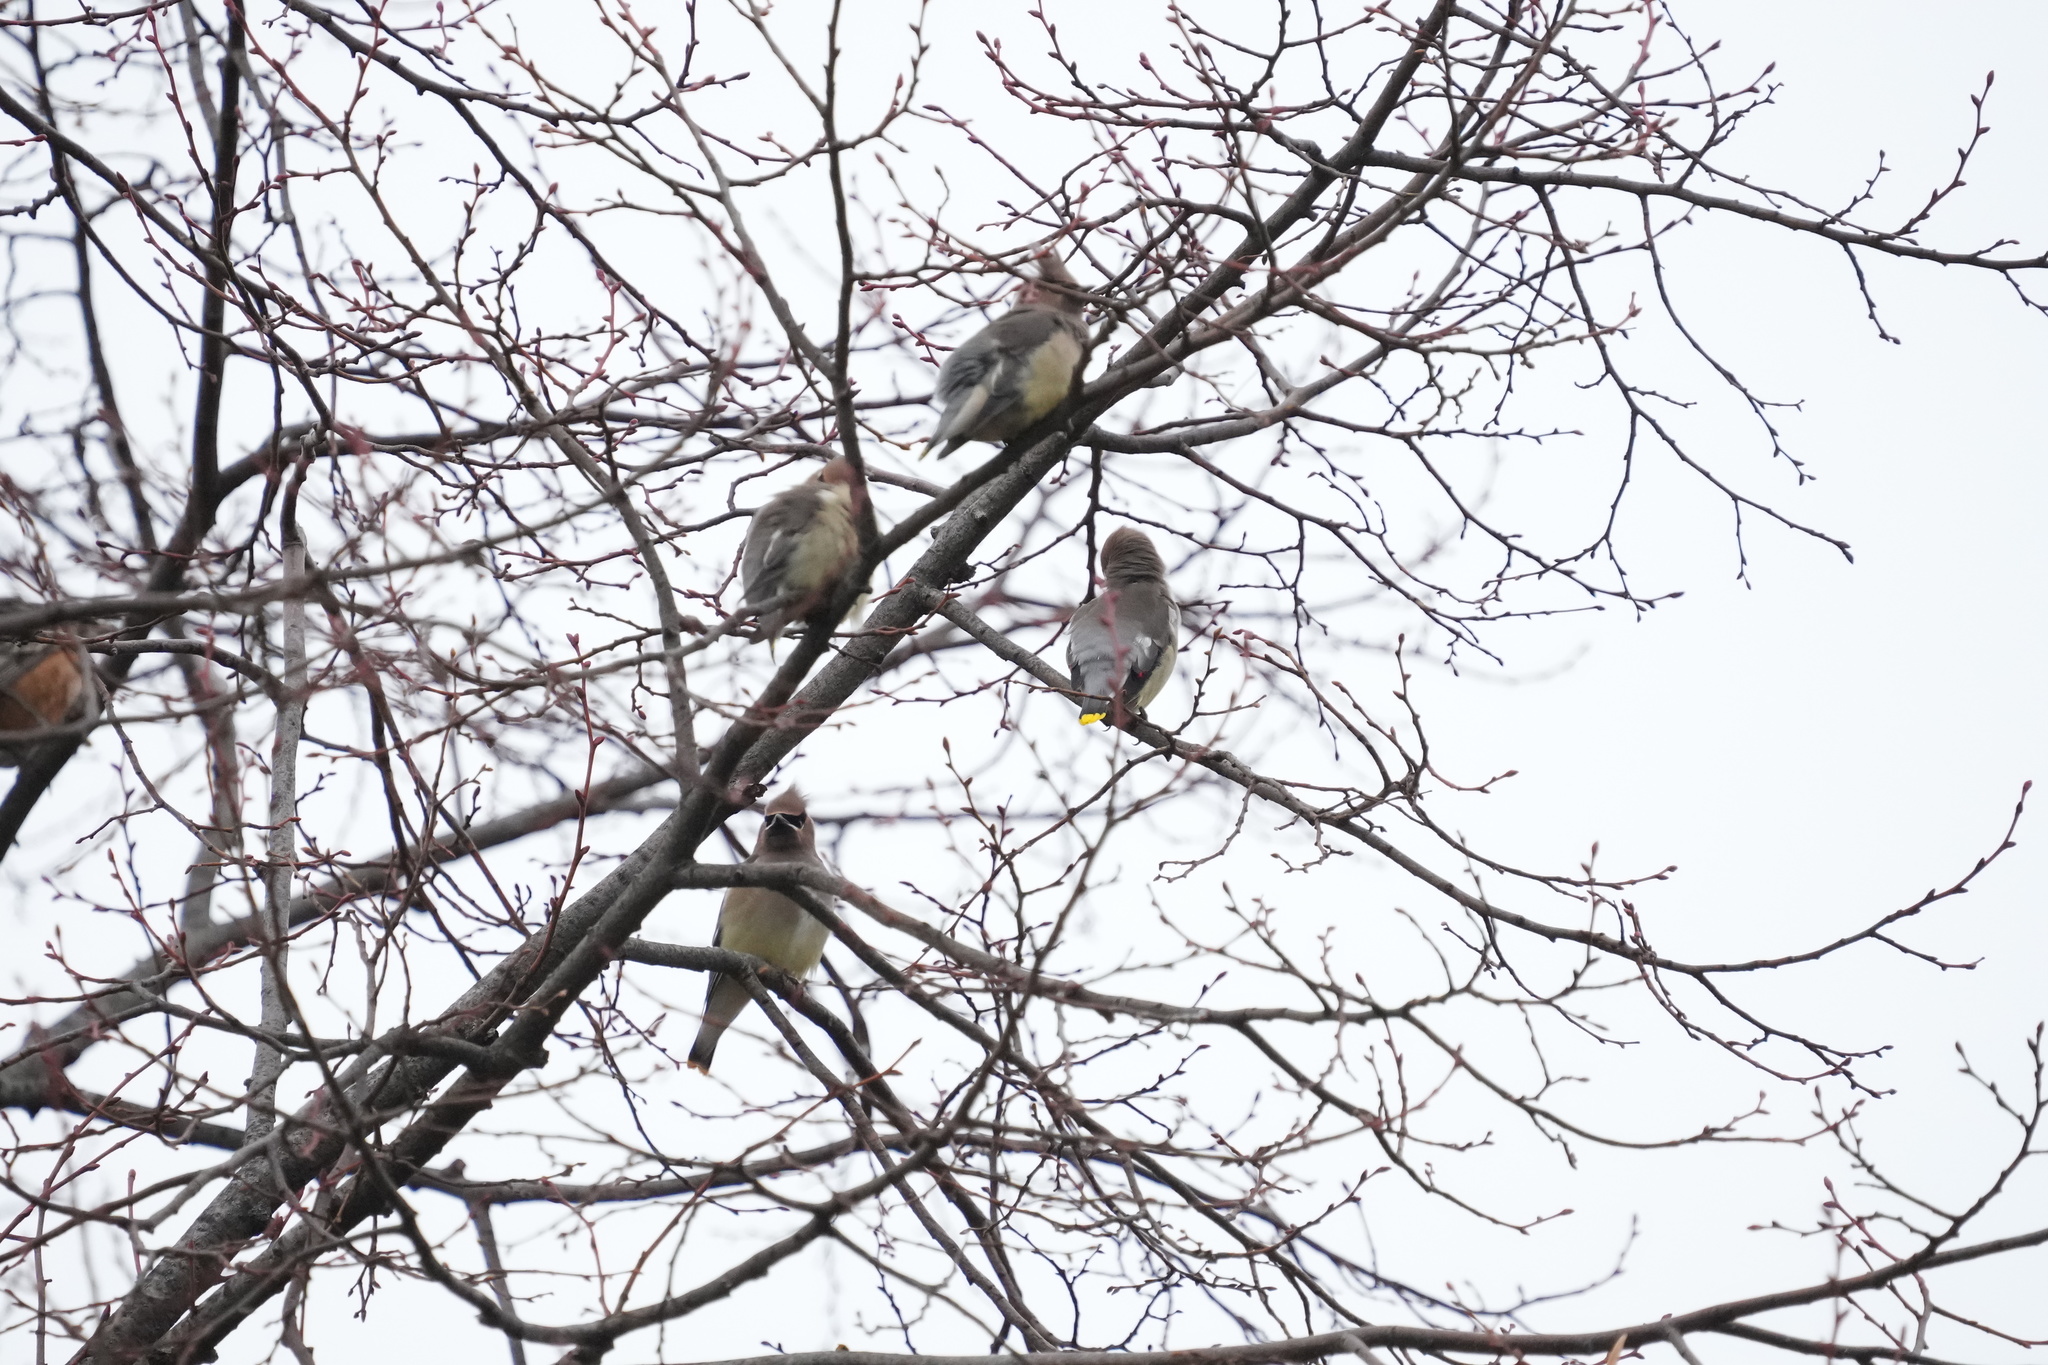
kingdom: Animalia
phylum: Chordata
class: Aves
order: Passeriformes
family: Bombycillidae
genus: Bombycilla
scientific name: Bombycilla cedrorum
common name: Cedar waxwing
